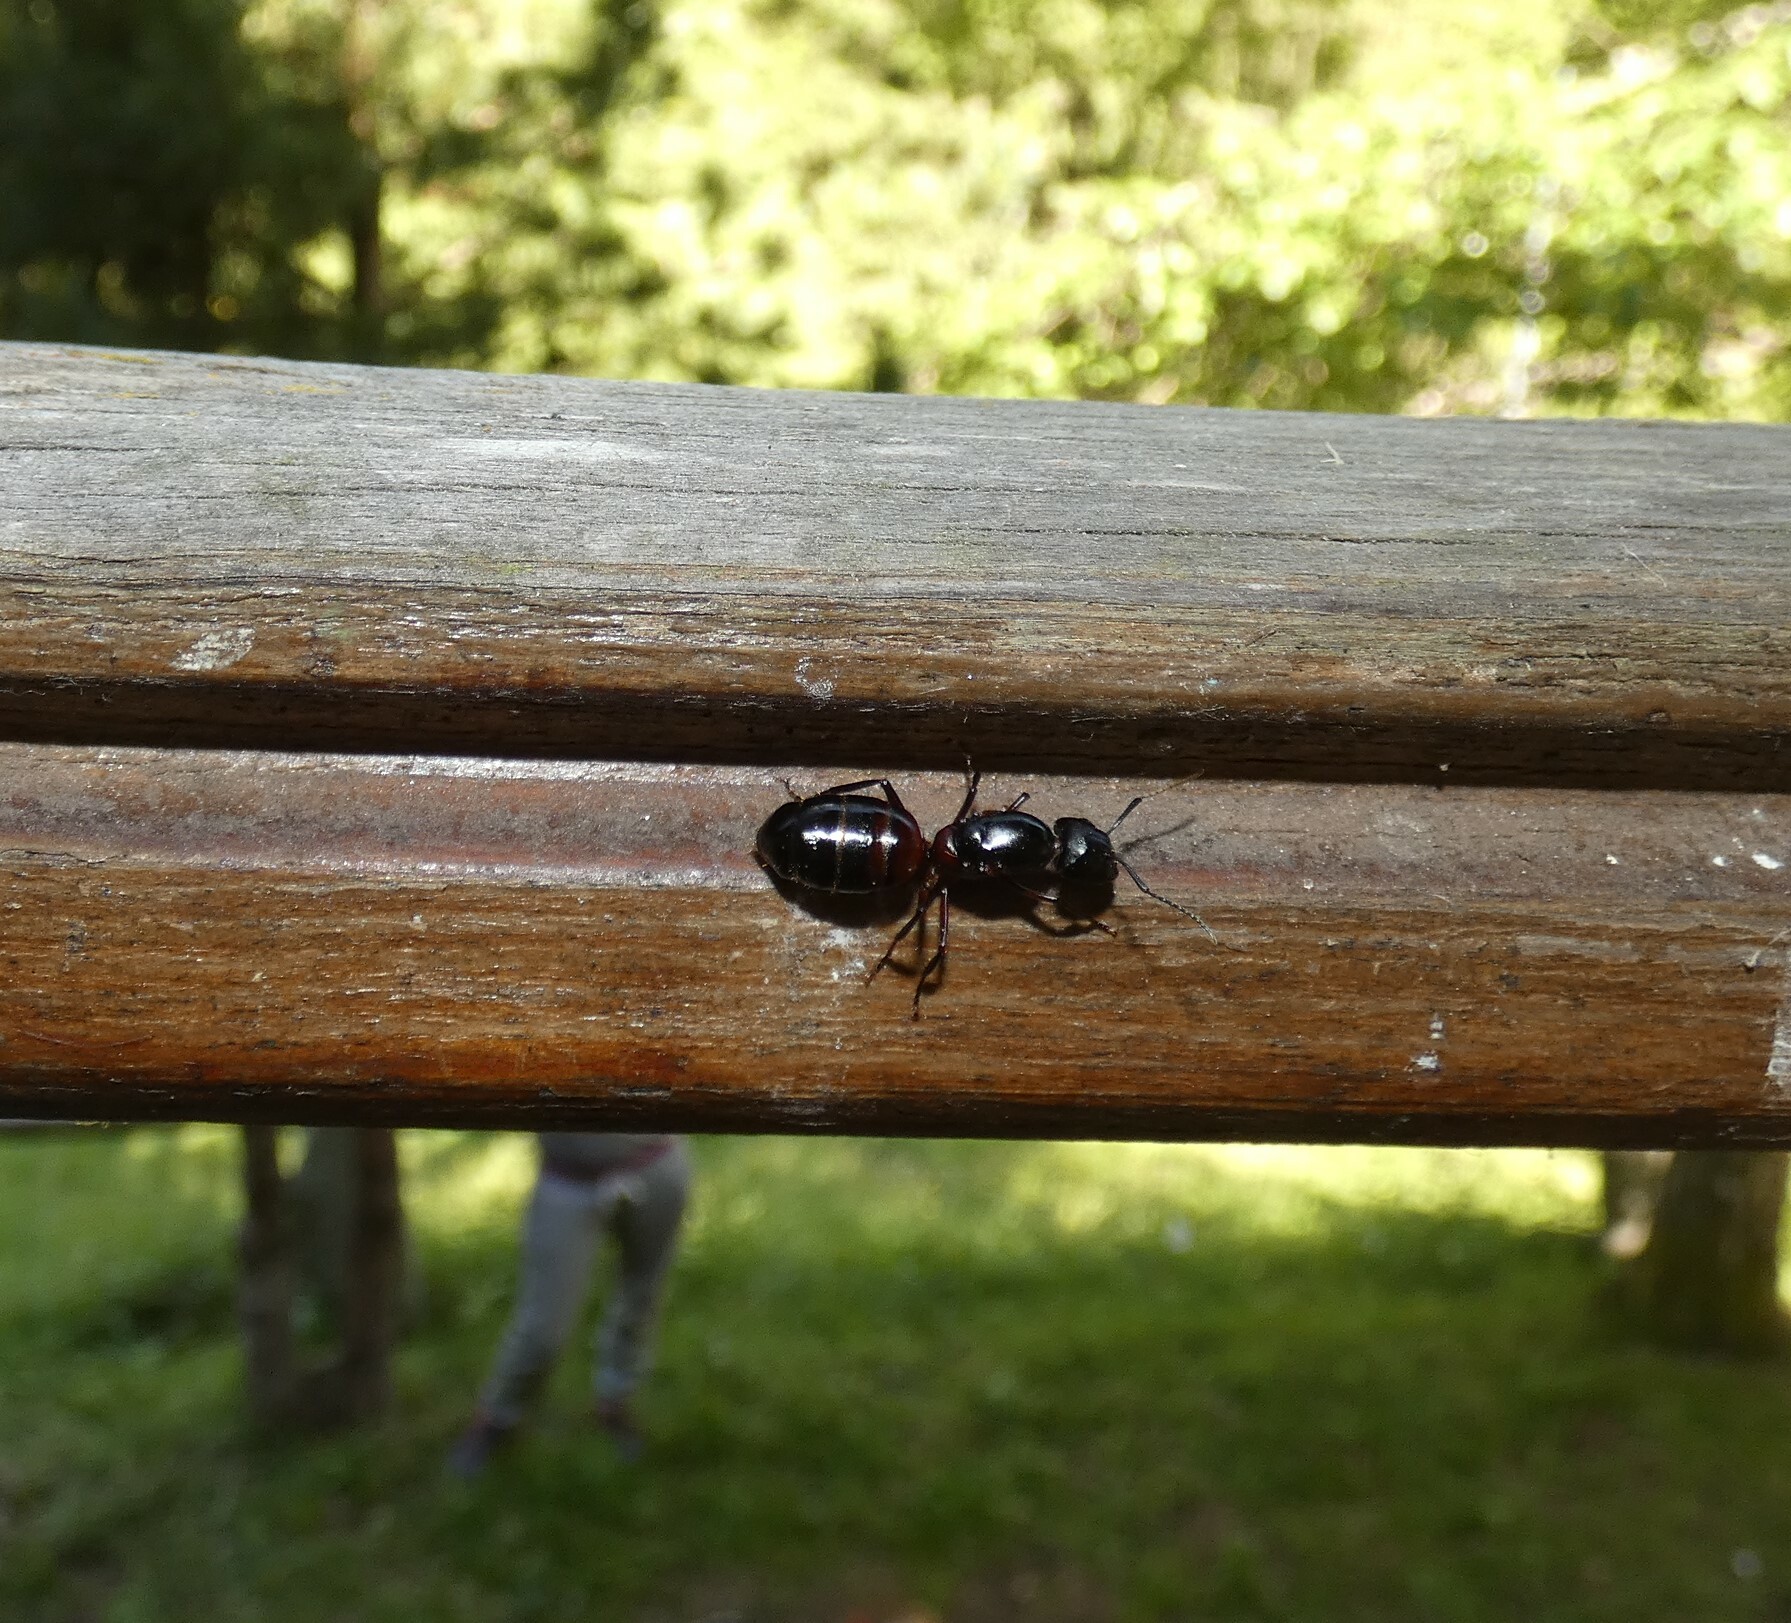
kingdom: Animalia
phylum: Arthropoda
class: Insecta
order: Hymenoptera
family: Formicidae
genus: Camponotus
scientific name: Camponotus ligniperdus
